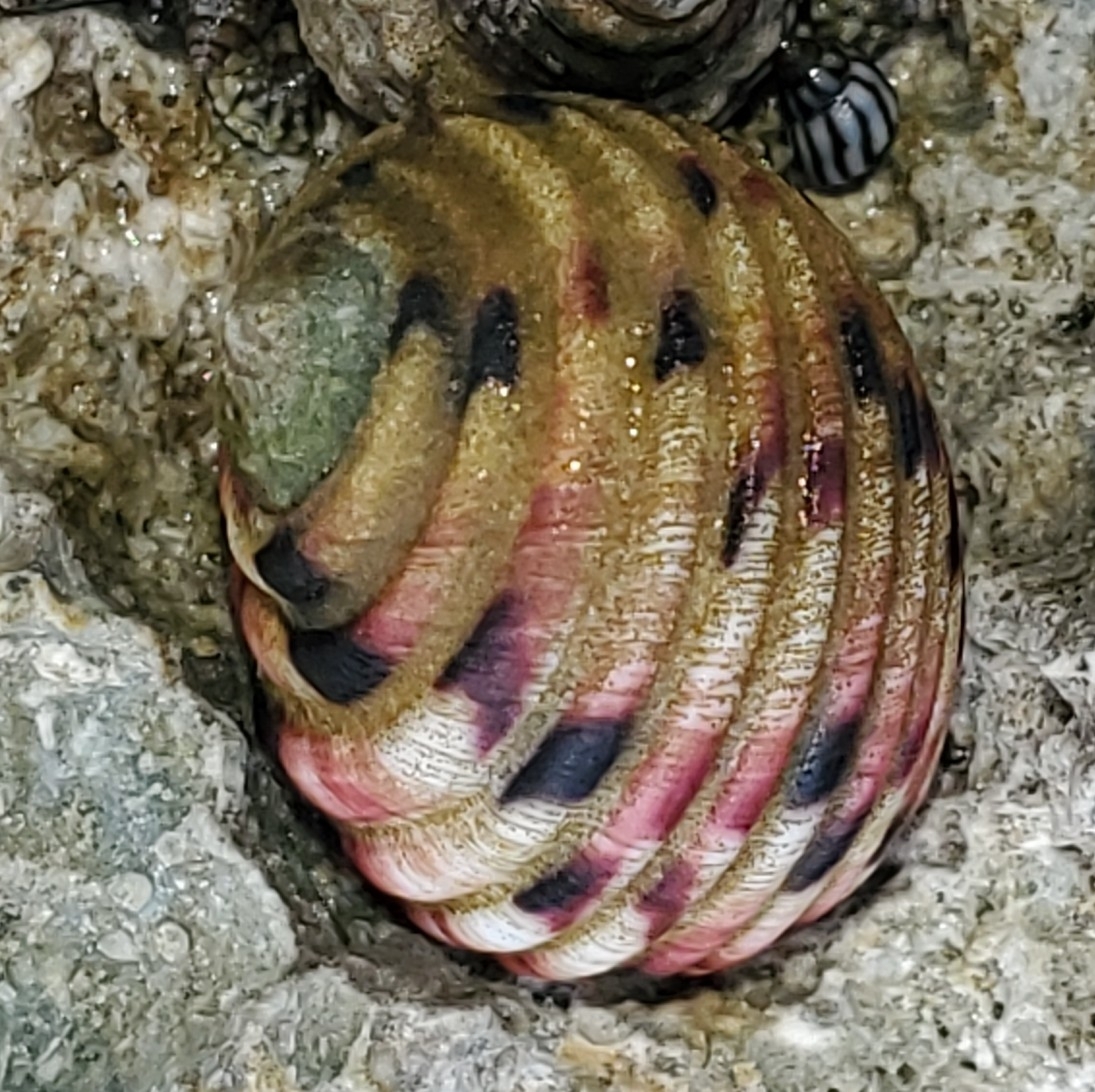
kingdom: Animalia
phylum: Mollusca
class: Gastropoda
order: Cycloneritida
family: Neritidae
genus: Nerita
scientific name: Nerita versicolor
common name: Four-tooth nerite
